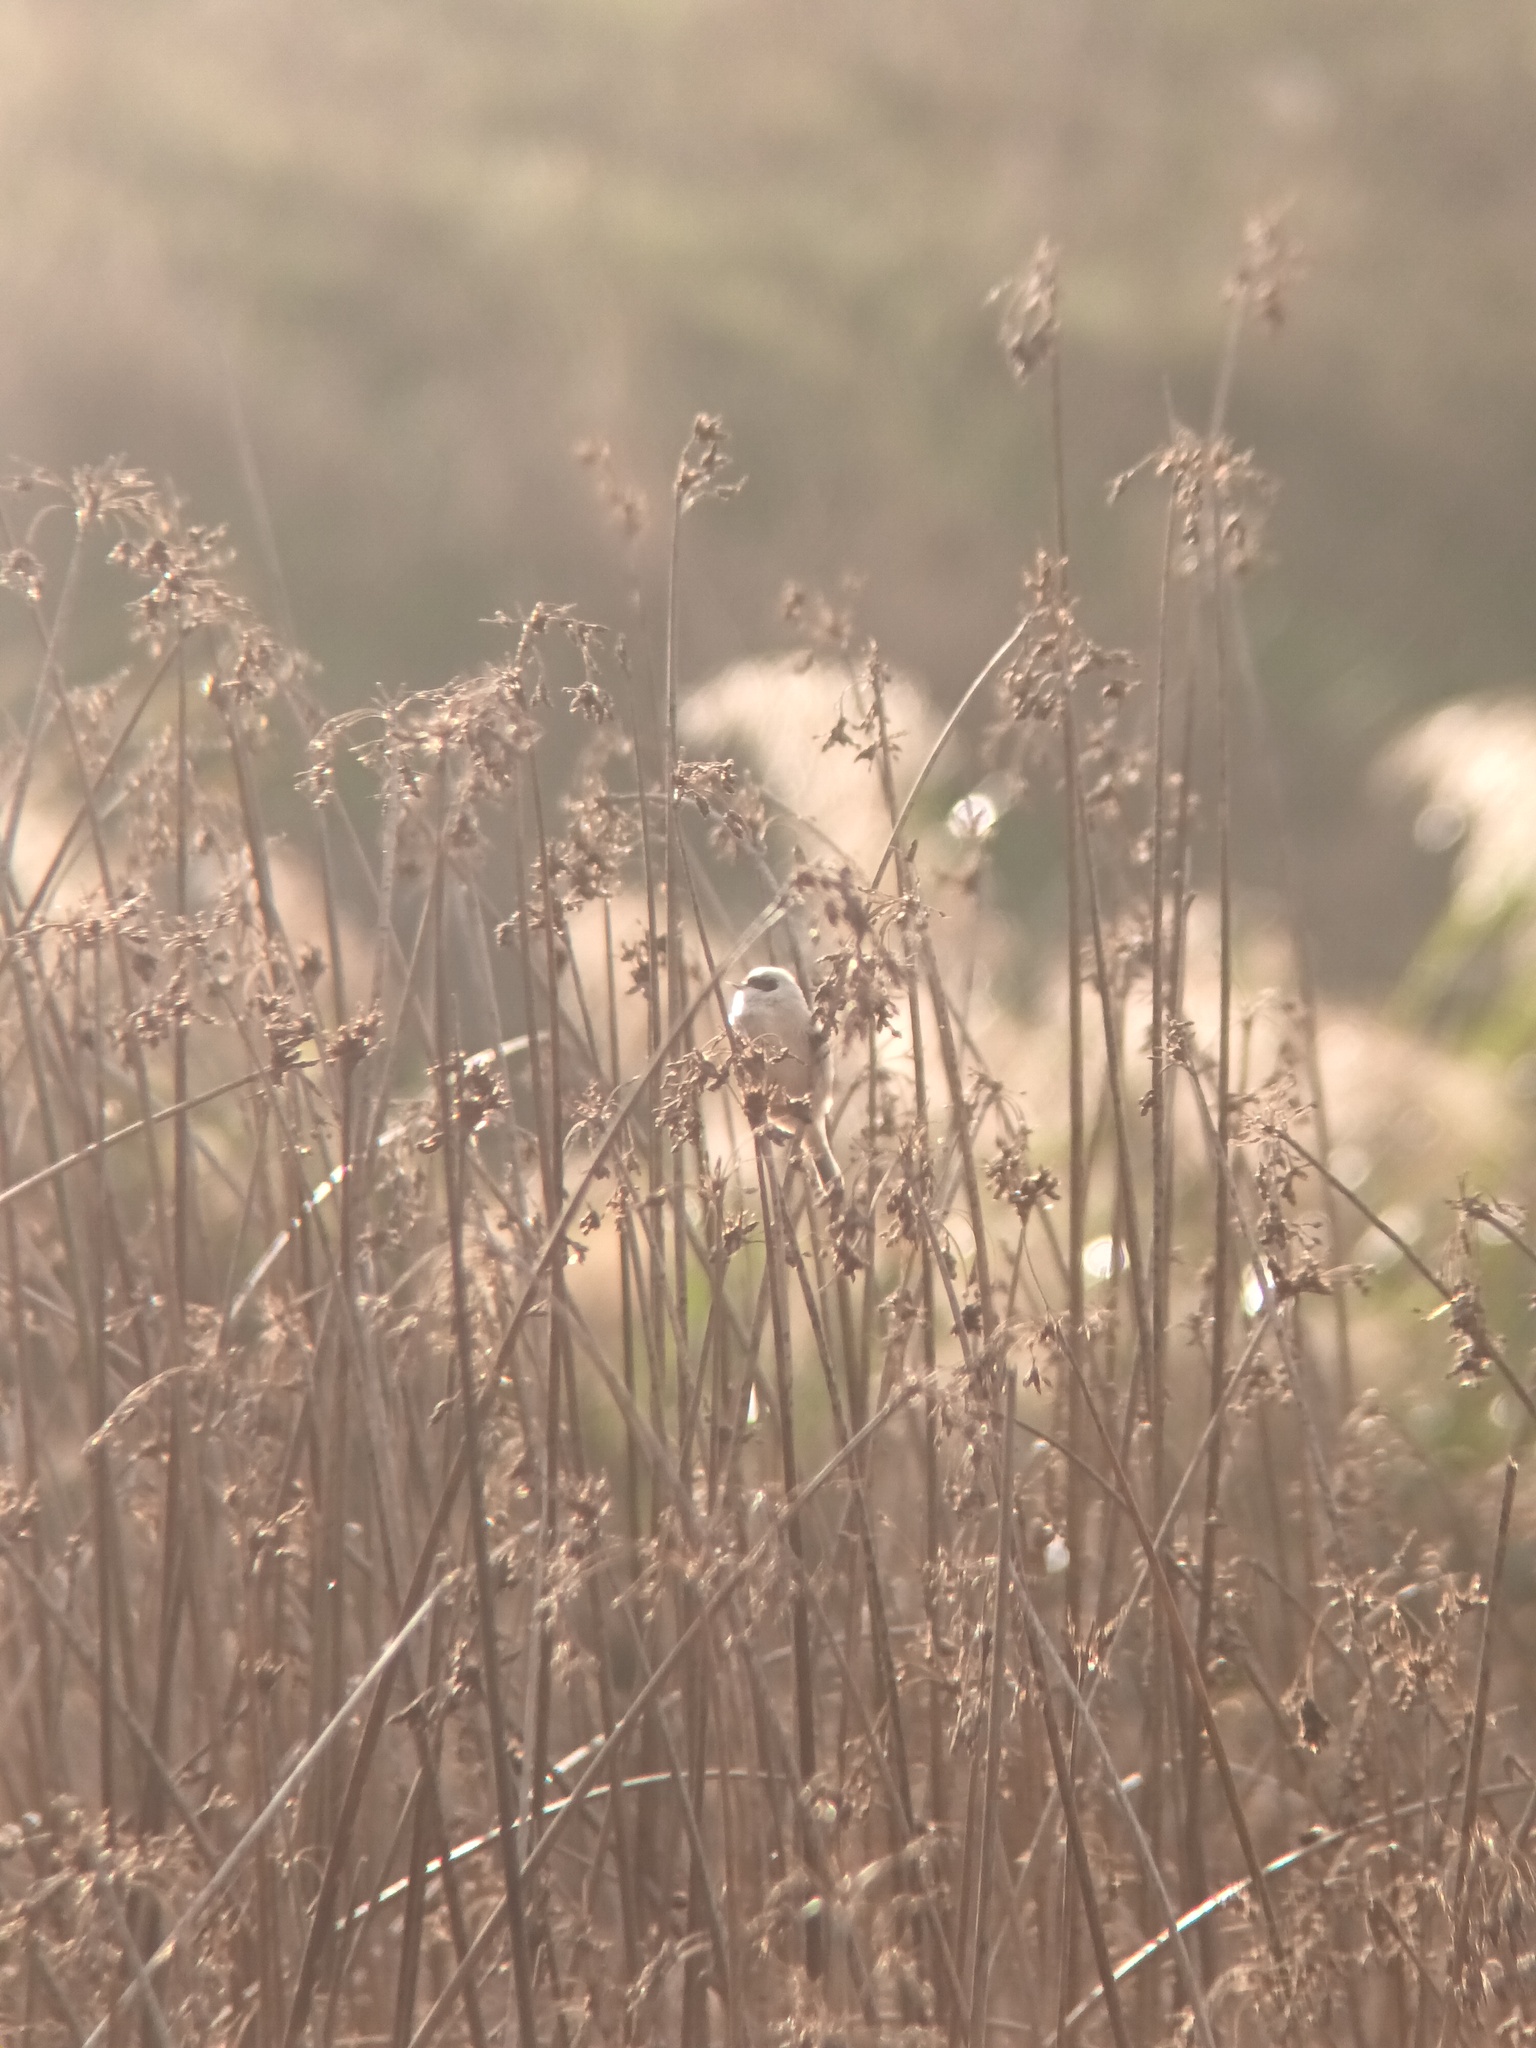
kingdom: Animalia
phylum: Chordata
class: Aves
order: Passeriformes
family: Remizidae
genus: Remiz
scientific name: Remiz pendulinus
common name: Eurasian penduline tit
